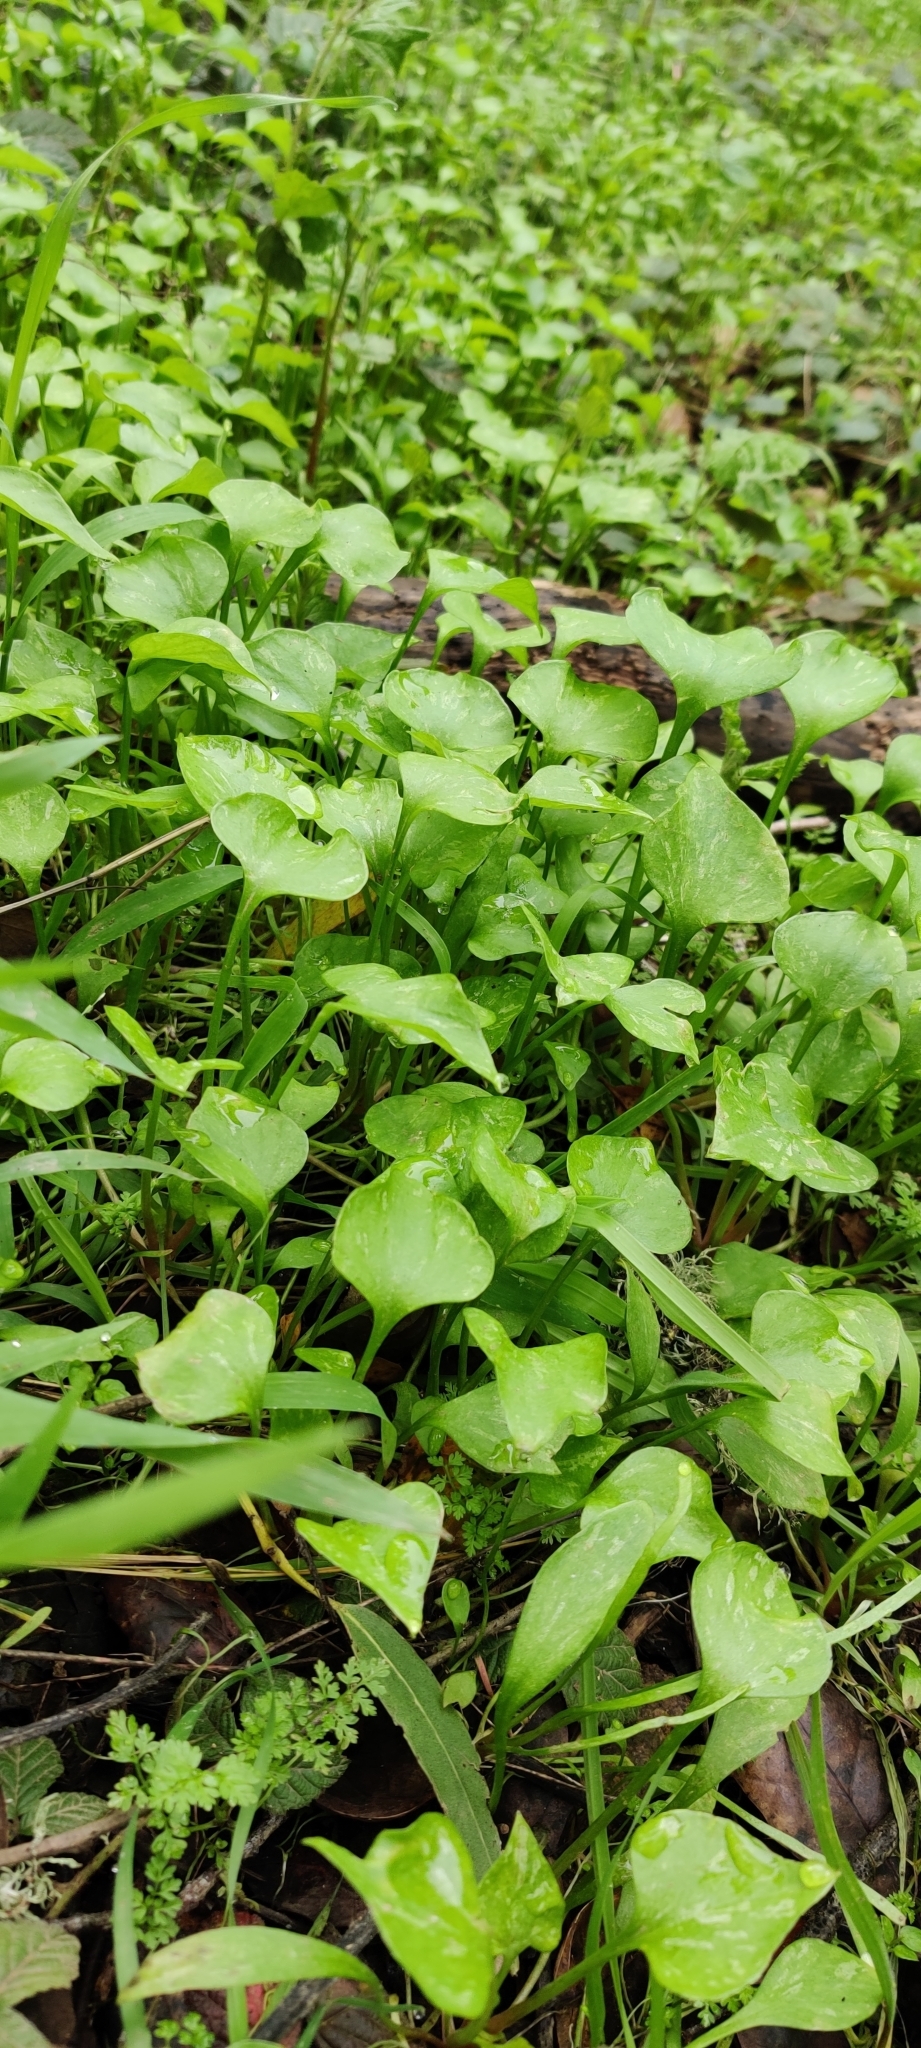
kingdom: Plantae
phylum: Tracheophyta
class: Magnoliopsida
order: Caryophyllales
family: Montiaceae
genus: Claytonia
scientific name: Claytonia perfoliata
